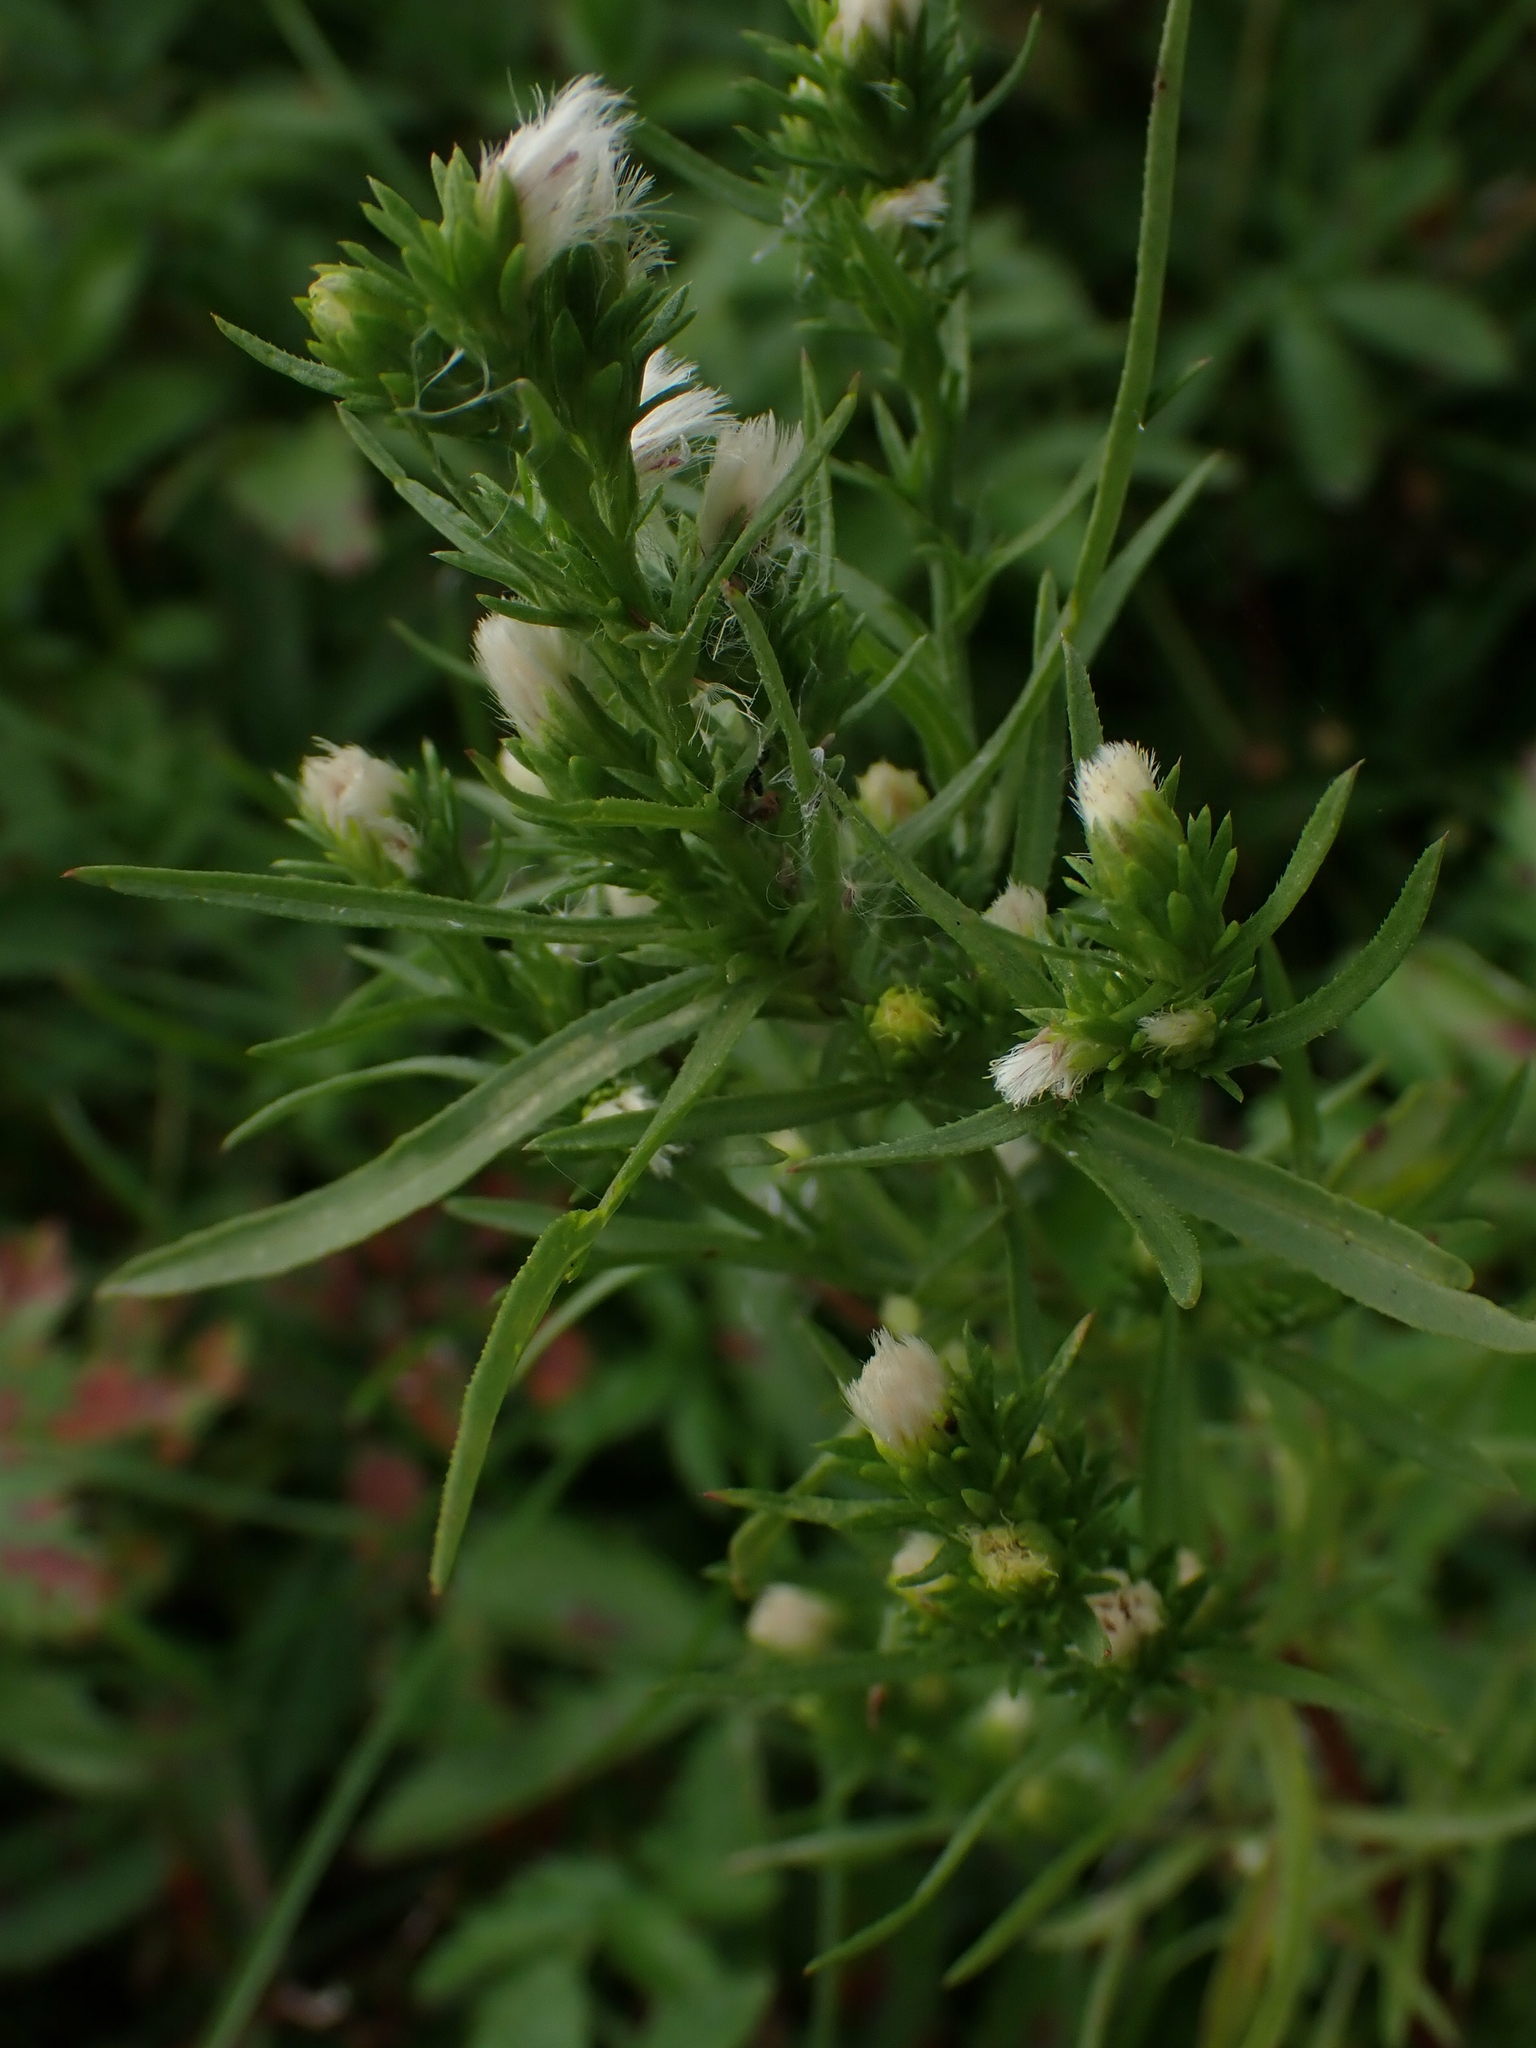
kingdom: Plantae
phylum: Tracheophyta
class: Magnoliopsida
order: Asterales
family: Asteraceae
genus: Symphyotrichum
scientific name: Symphyotrichum ciliatum
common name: Rayless annual aster
